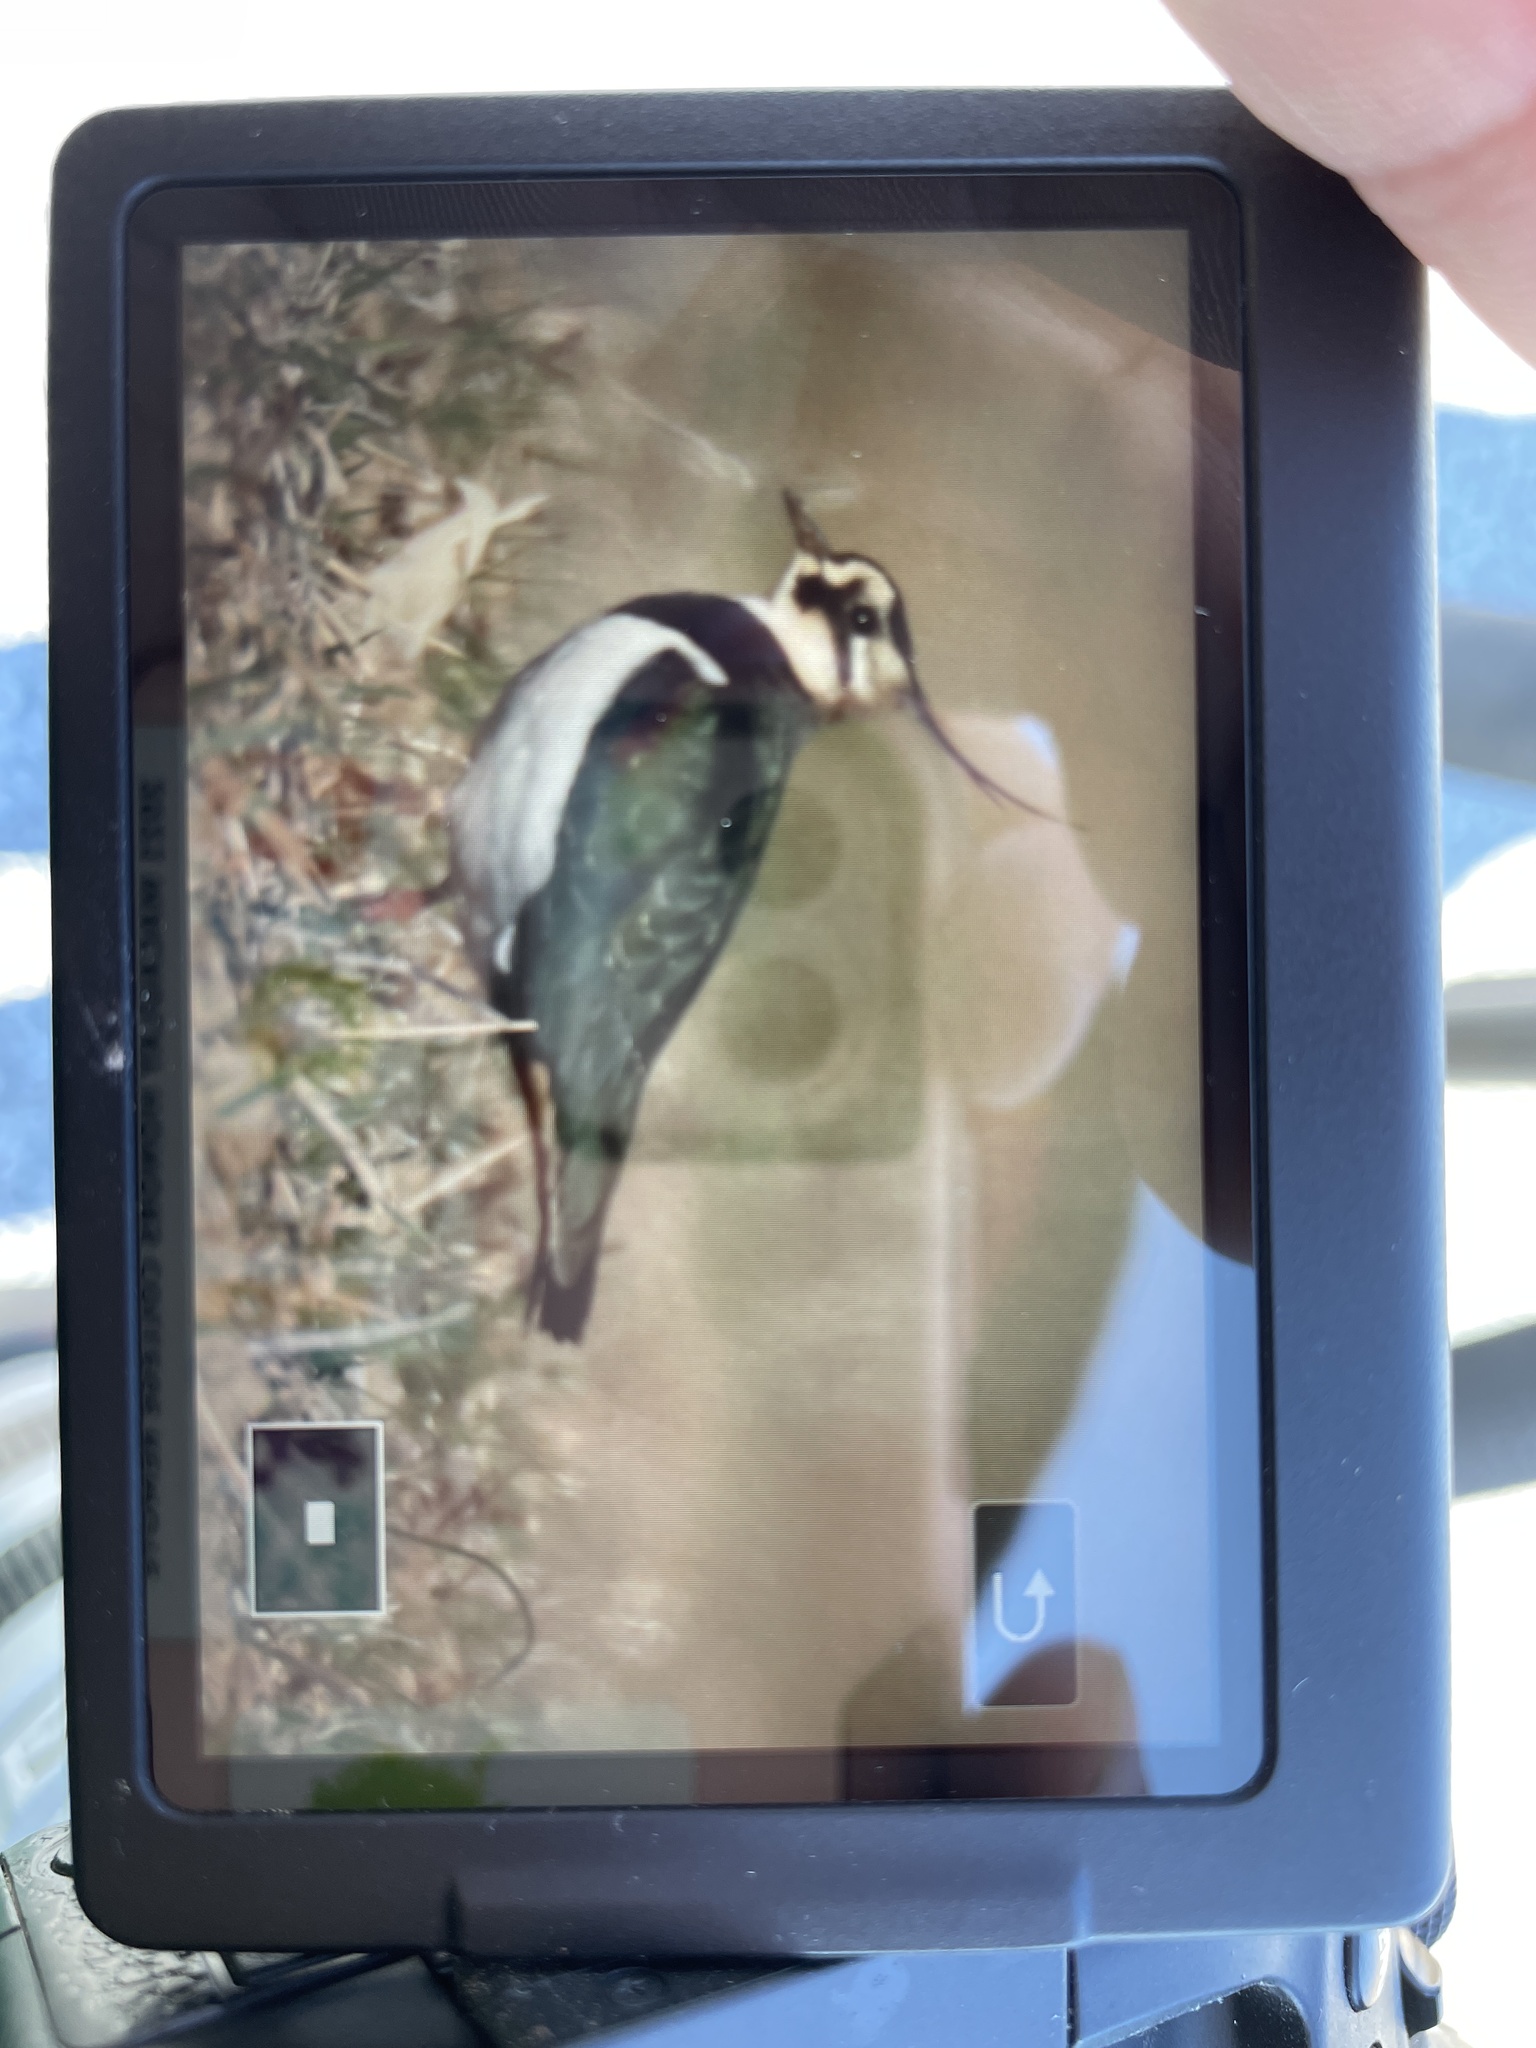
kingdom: Animalia
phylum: Chordata
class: Aves
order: Charadriiformes
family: Charadriidae
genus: Vanellus
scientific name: Vanellus vanellus
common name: Northern lapwing
